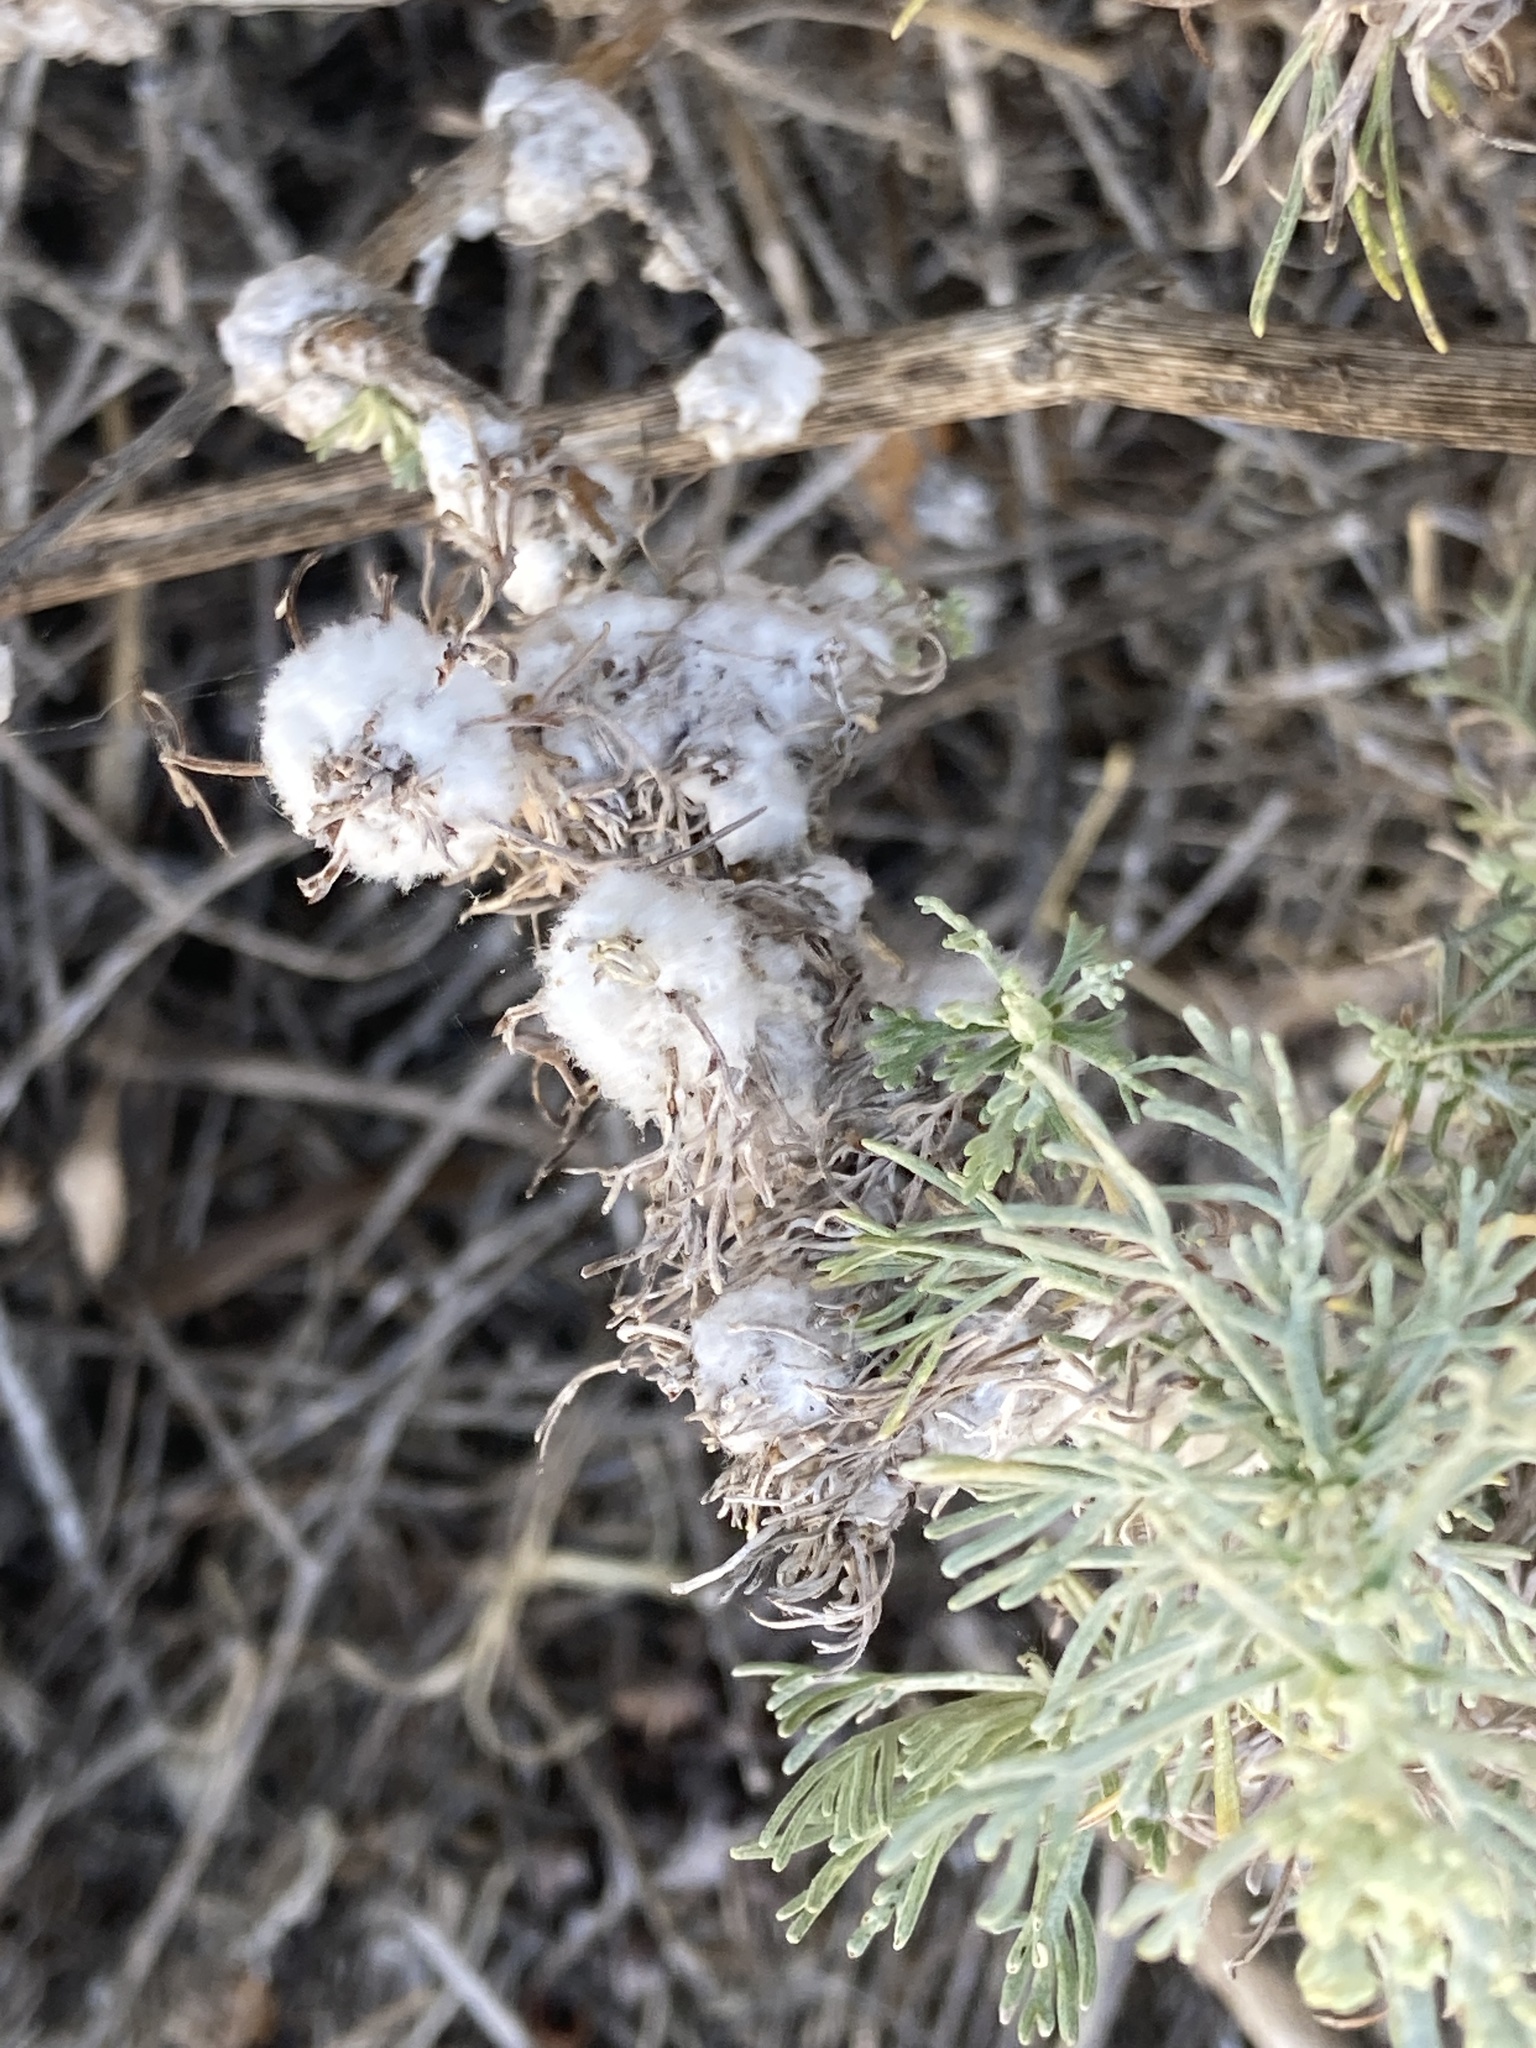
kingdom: Animalia
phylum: Arthropoda
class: Insecta
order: Diptera
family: Cecidomyiidae
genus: Rhopalomyia
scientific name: Rhopalomyia floccosa
